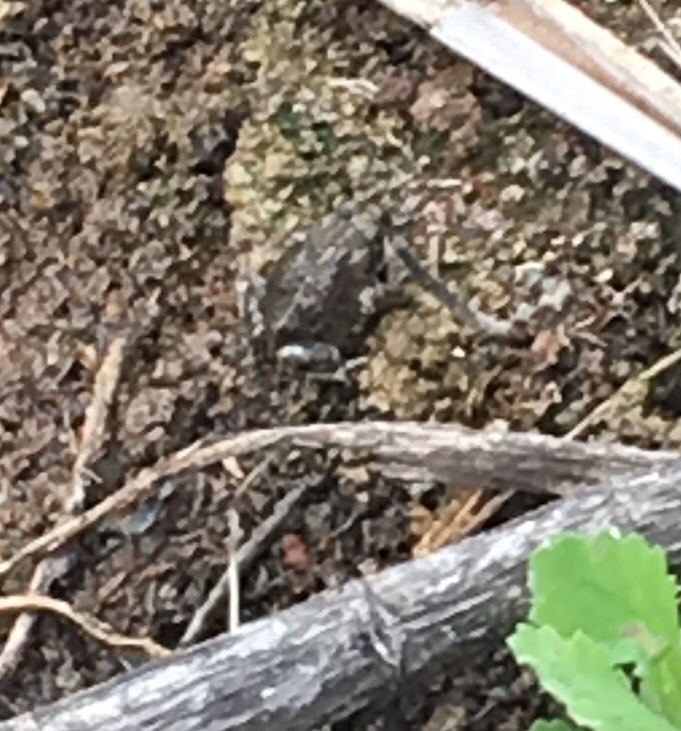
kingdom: Animalia
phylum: Chordata
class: Amphibia
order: Anura
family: Bufonidae
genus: Anaxyrus
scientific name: Anaxyrus boreas
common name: Western toad
